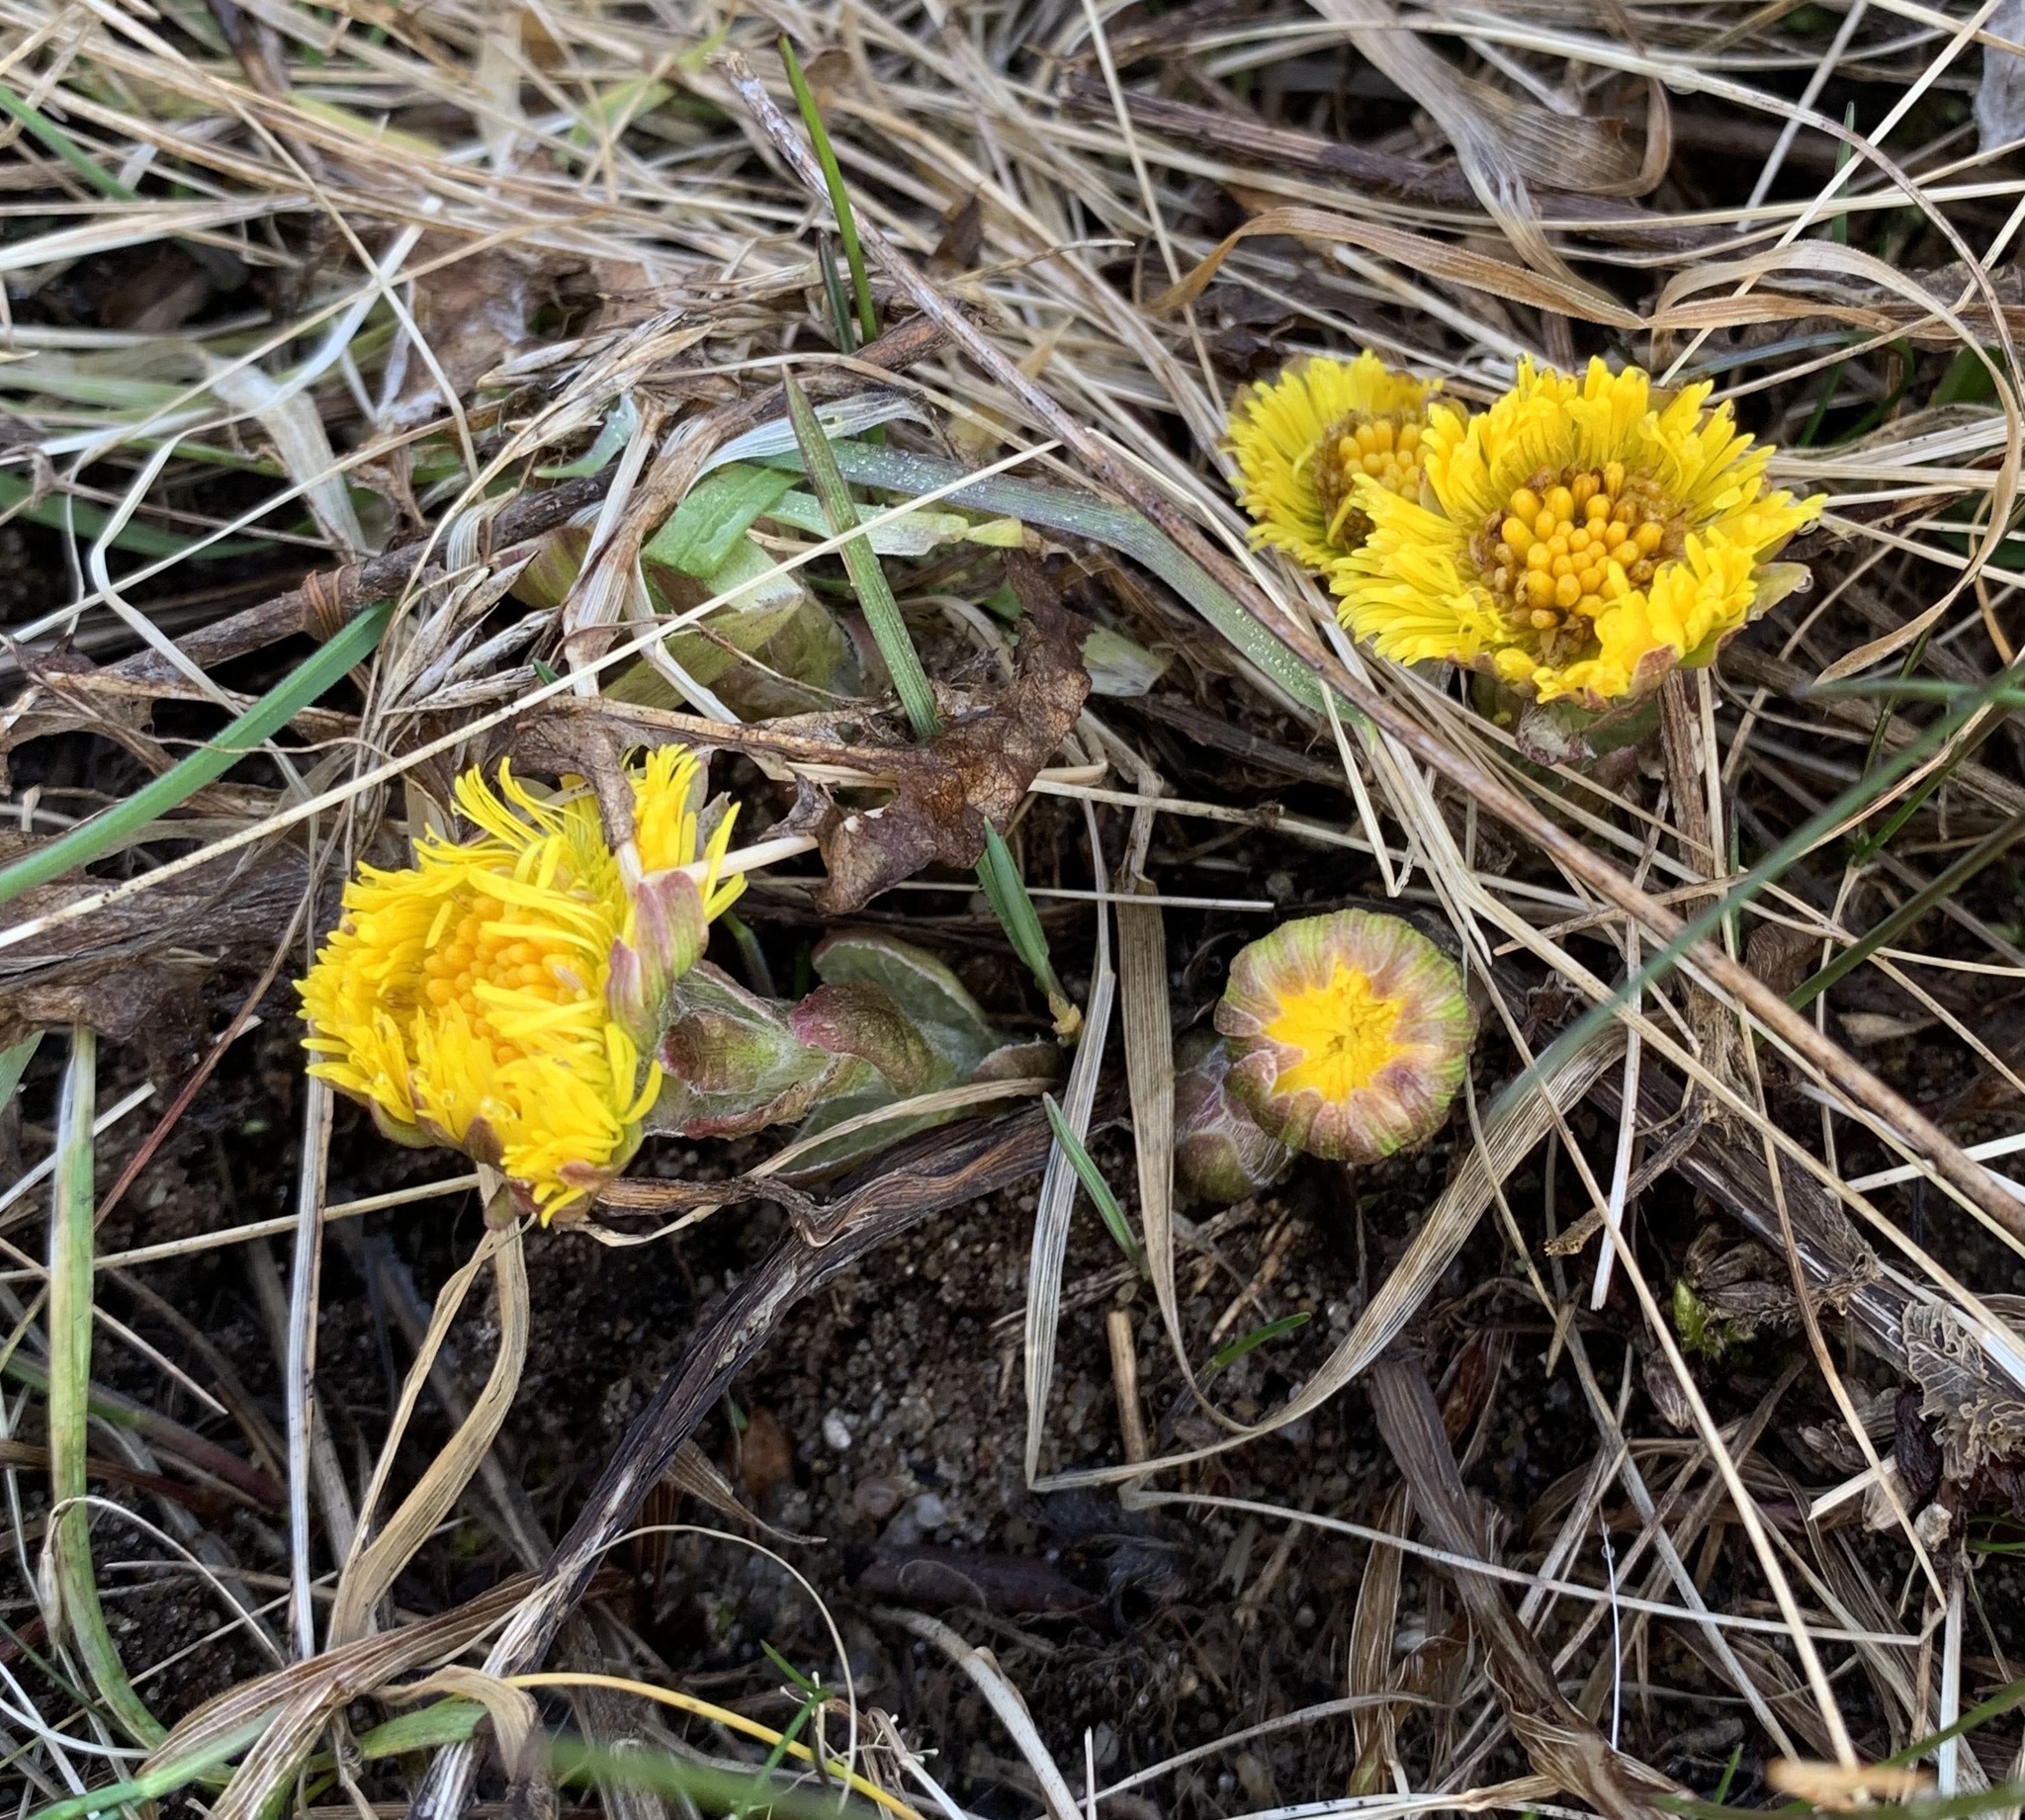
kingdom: Plantae
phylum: Tracheophyta
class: Magnoliopsida
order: Asterales
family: Asteraceae
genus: Tussilago
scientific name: Tussilago farfara
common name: Coltsfoot
